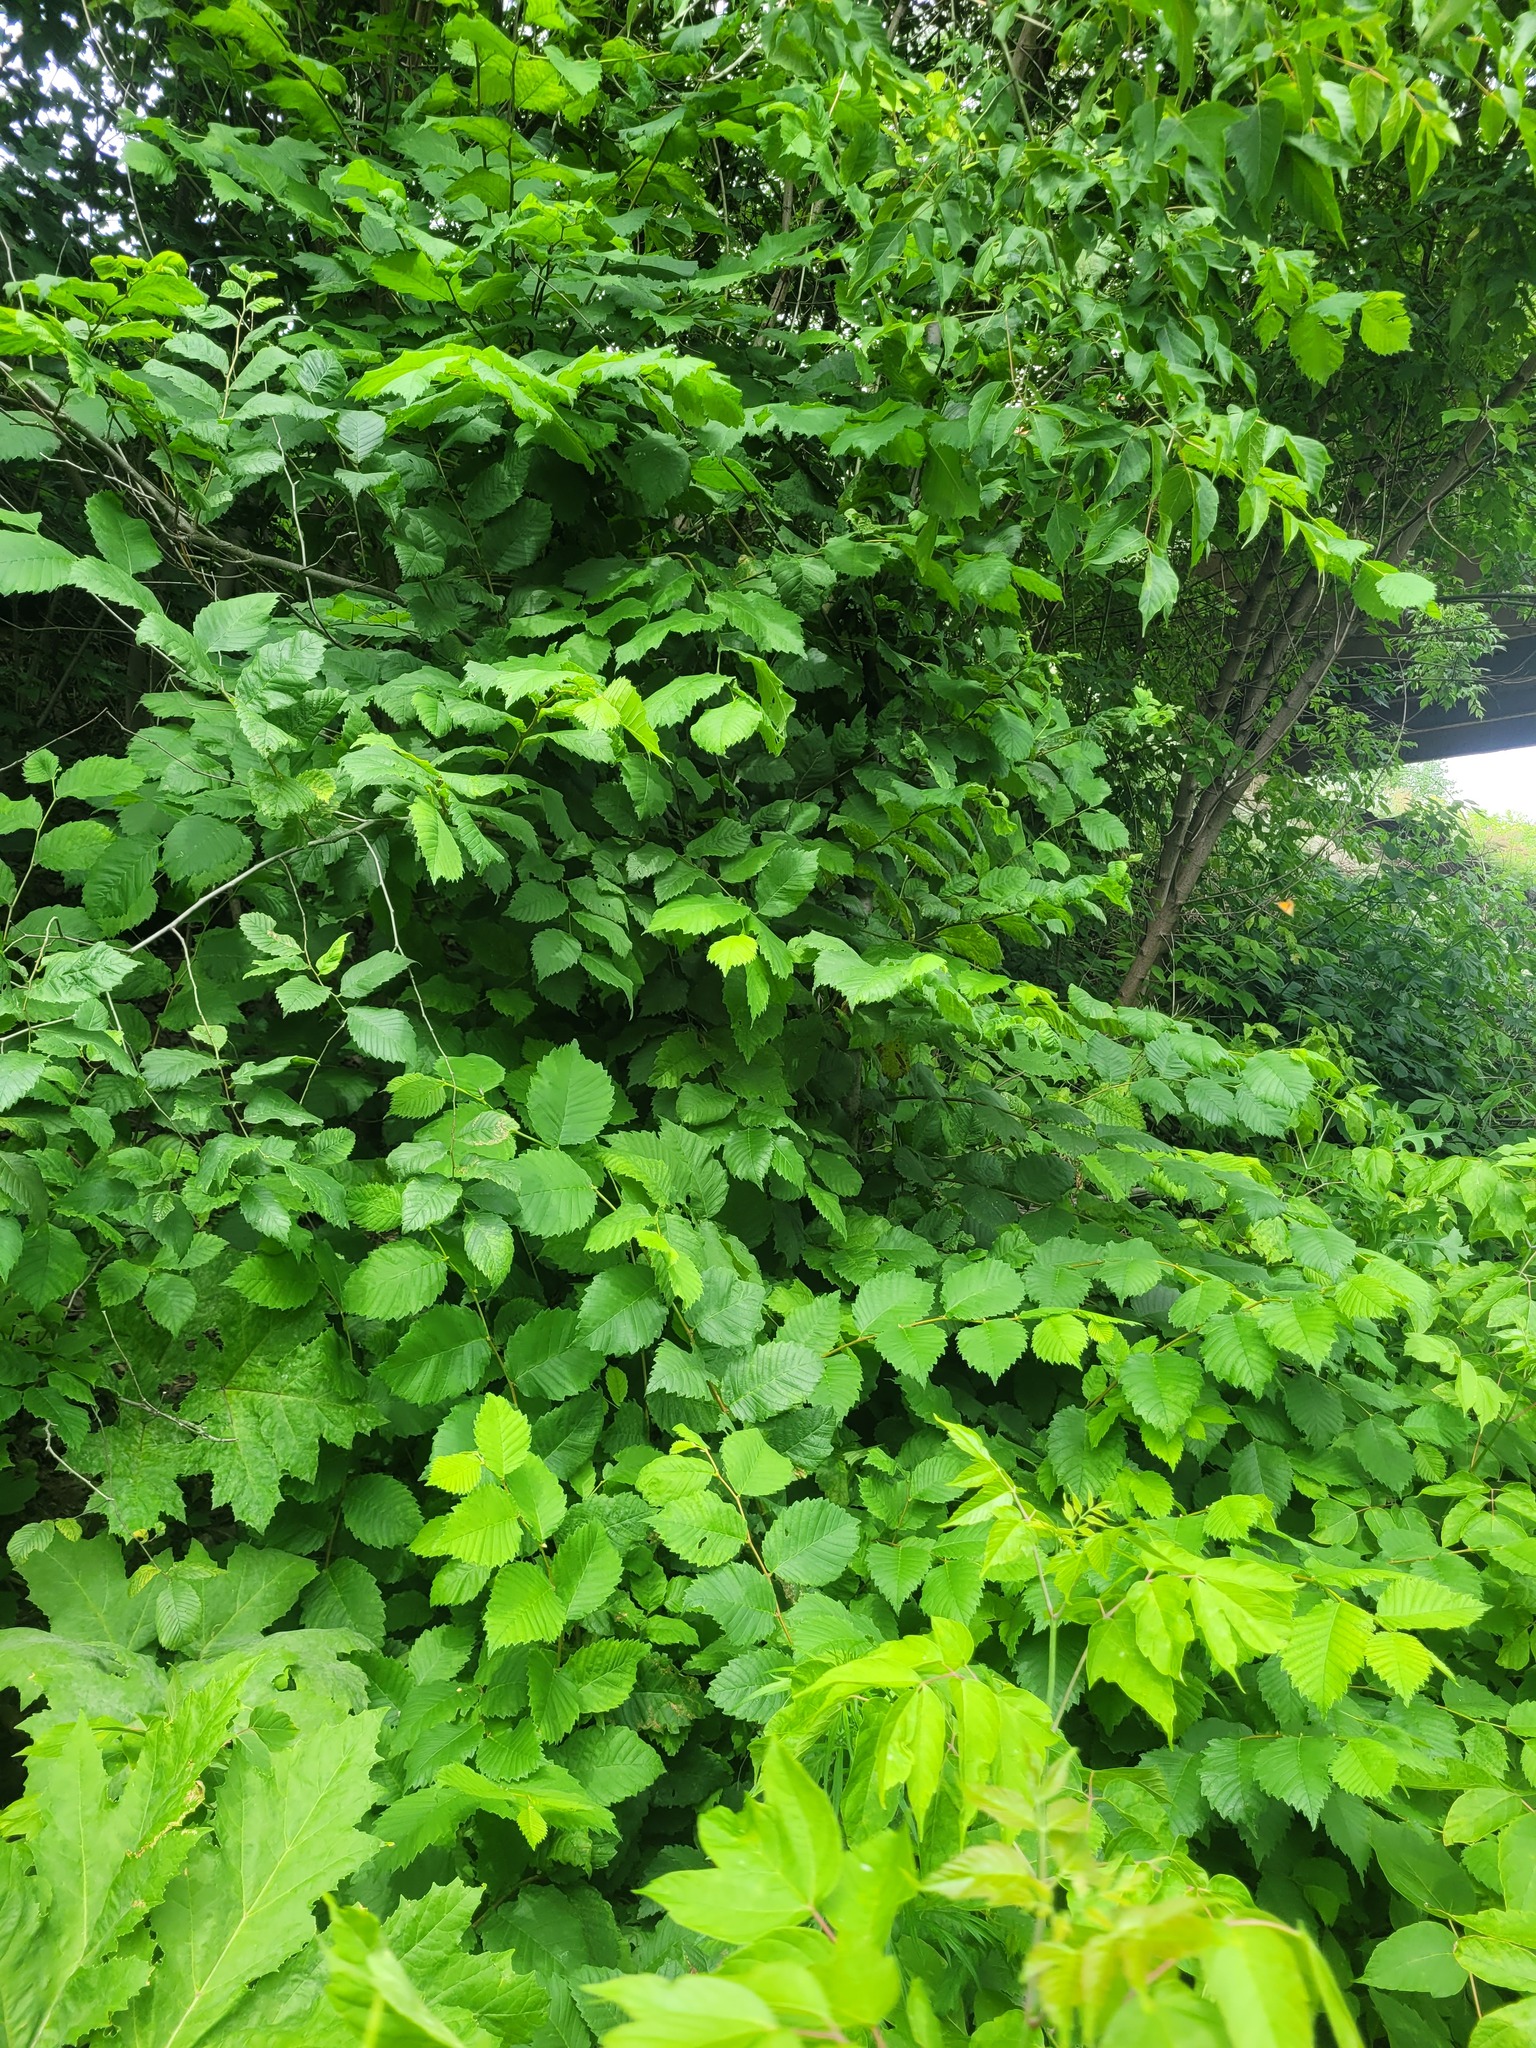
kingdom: Plantae
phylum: Tracheophyta
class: Magnoliopsida
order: Rosales
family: Ulmaceae
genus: Ulmus
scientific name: Ulmus laevis
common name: European white-elm
